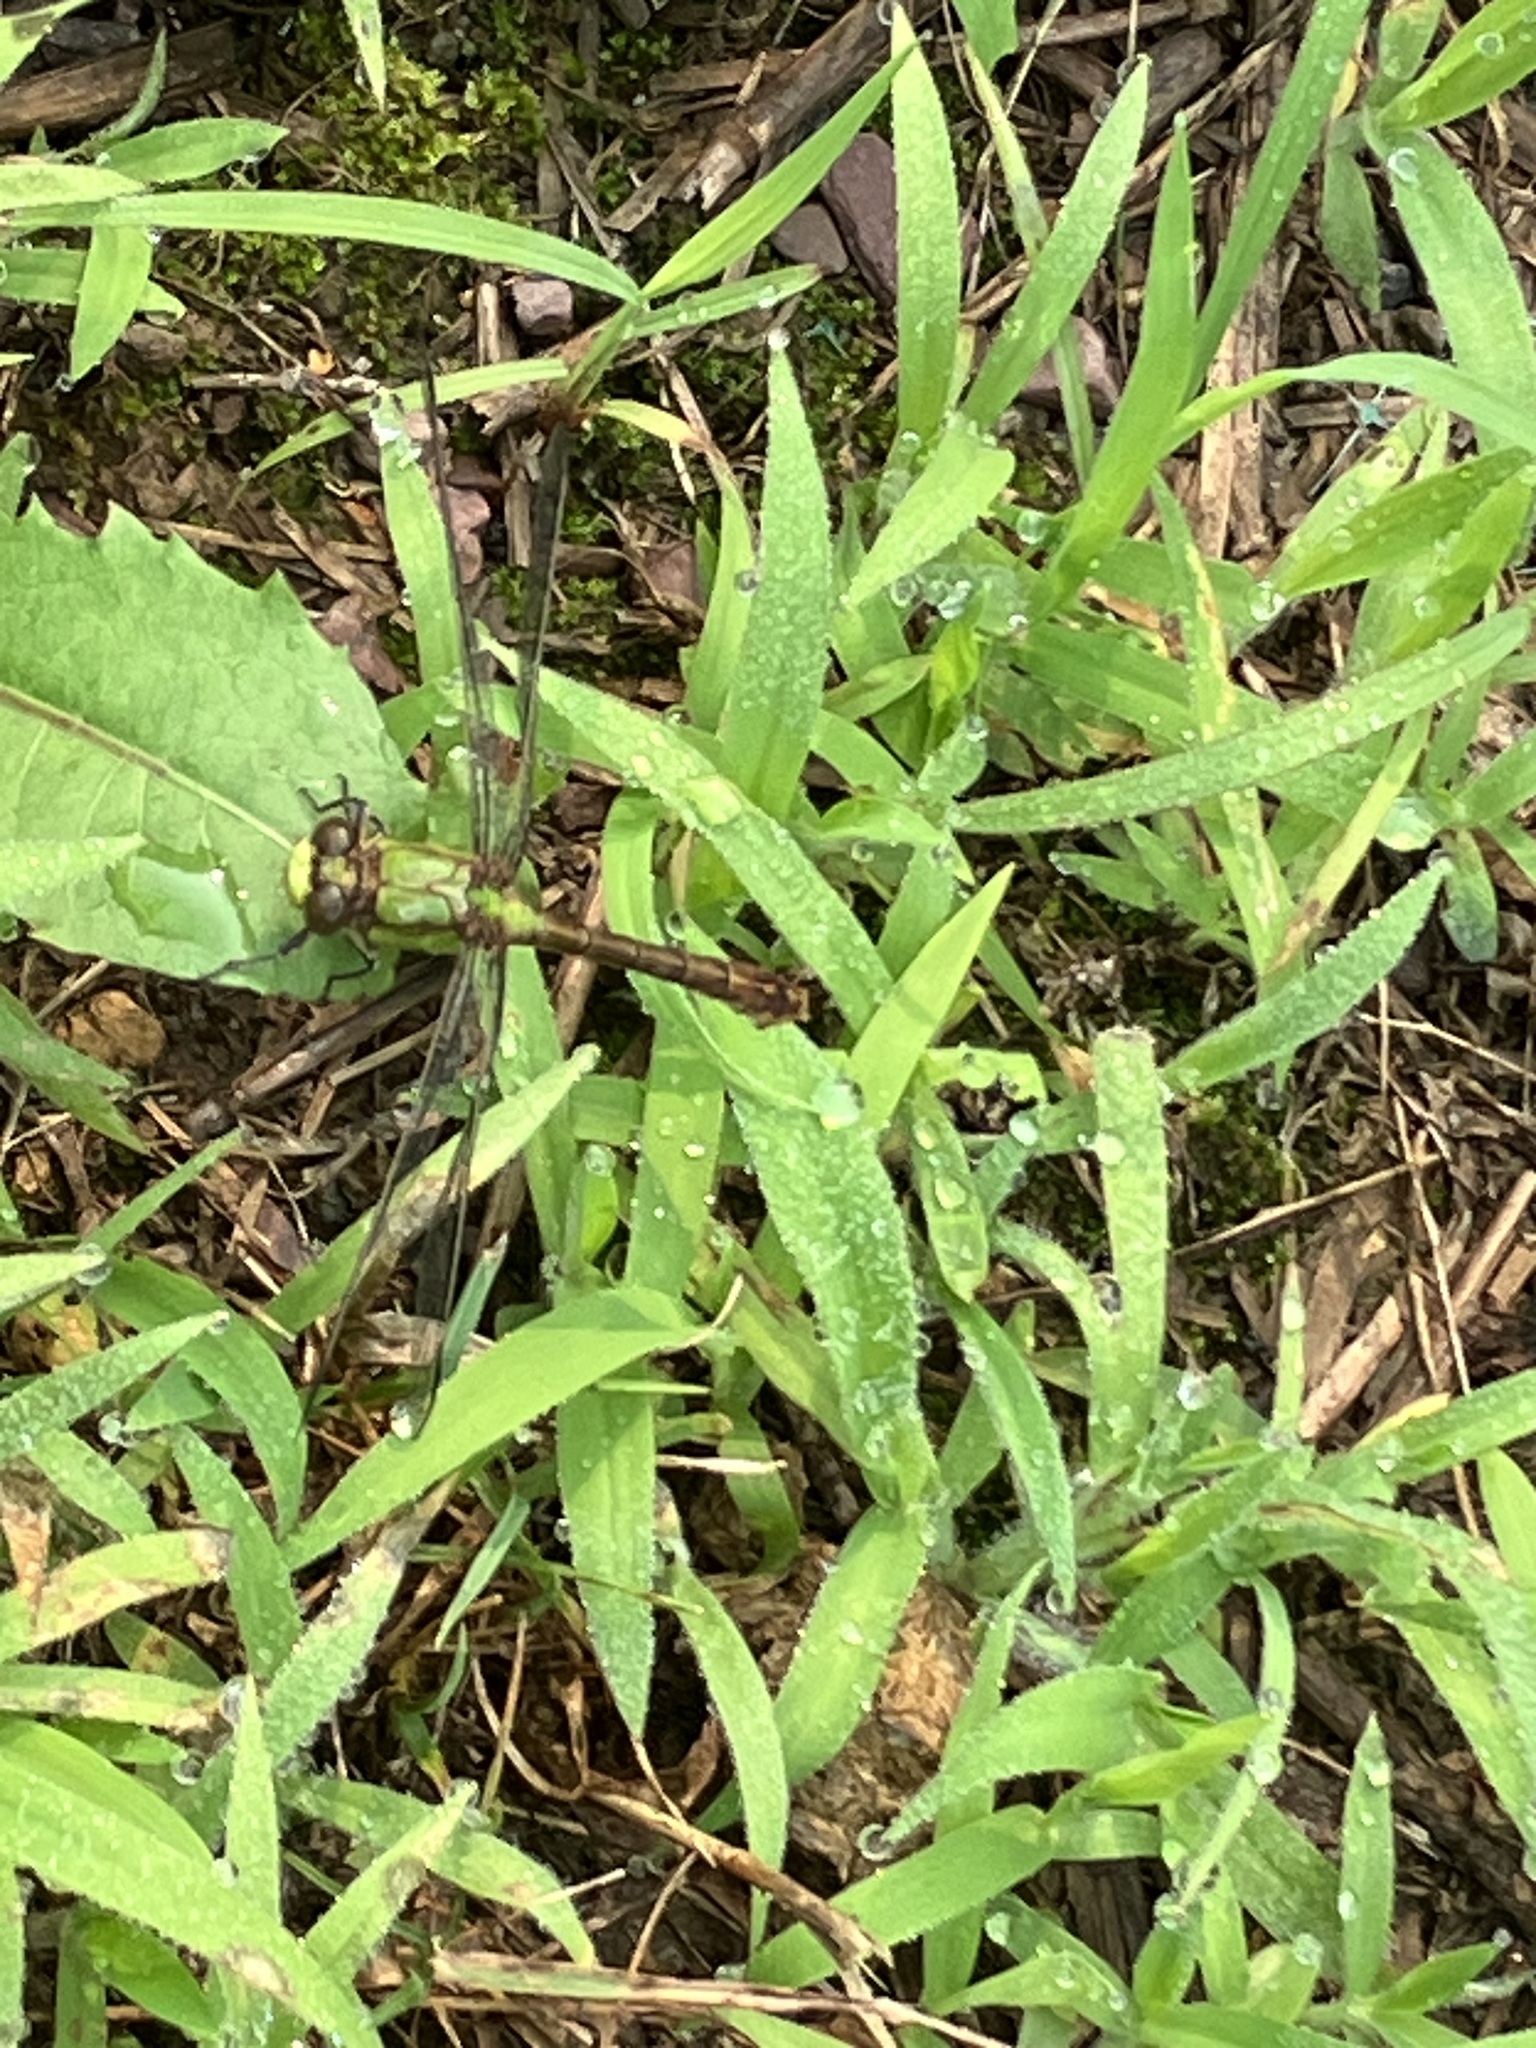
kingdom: Animalia
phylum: Arthropoda
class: Insecta
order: Odonata
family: Gomphidae
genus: Ophiogomphus
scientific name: Ophiogomphus rupinsulensis
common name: Rusty snaketail
